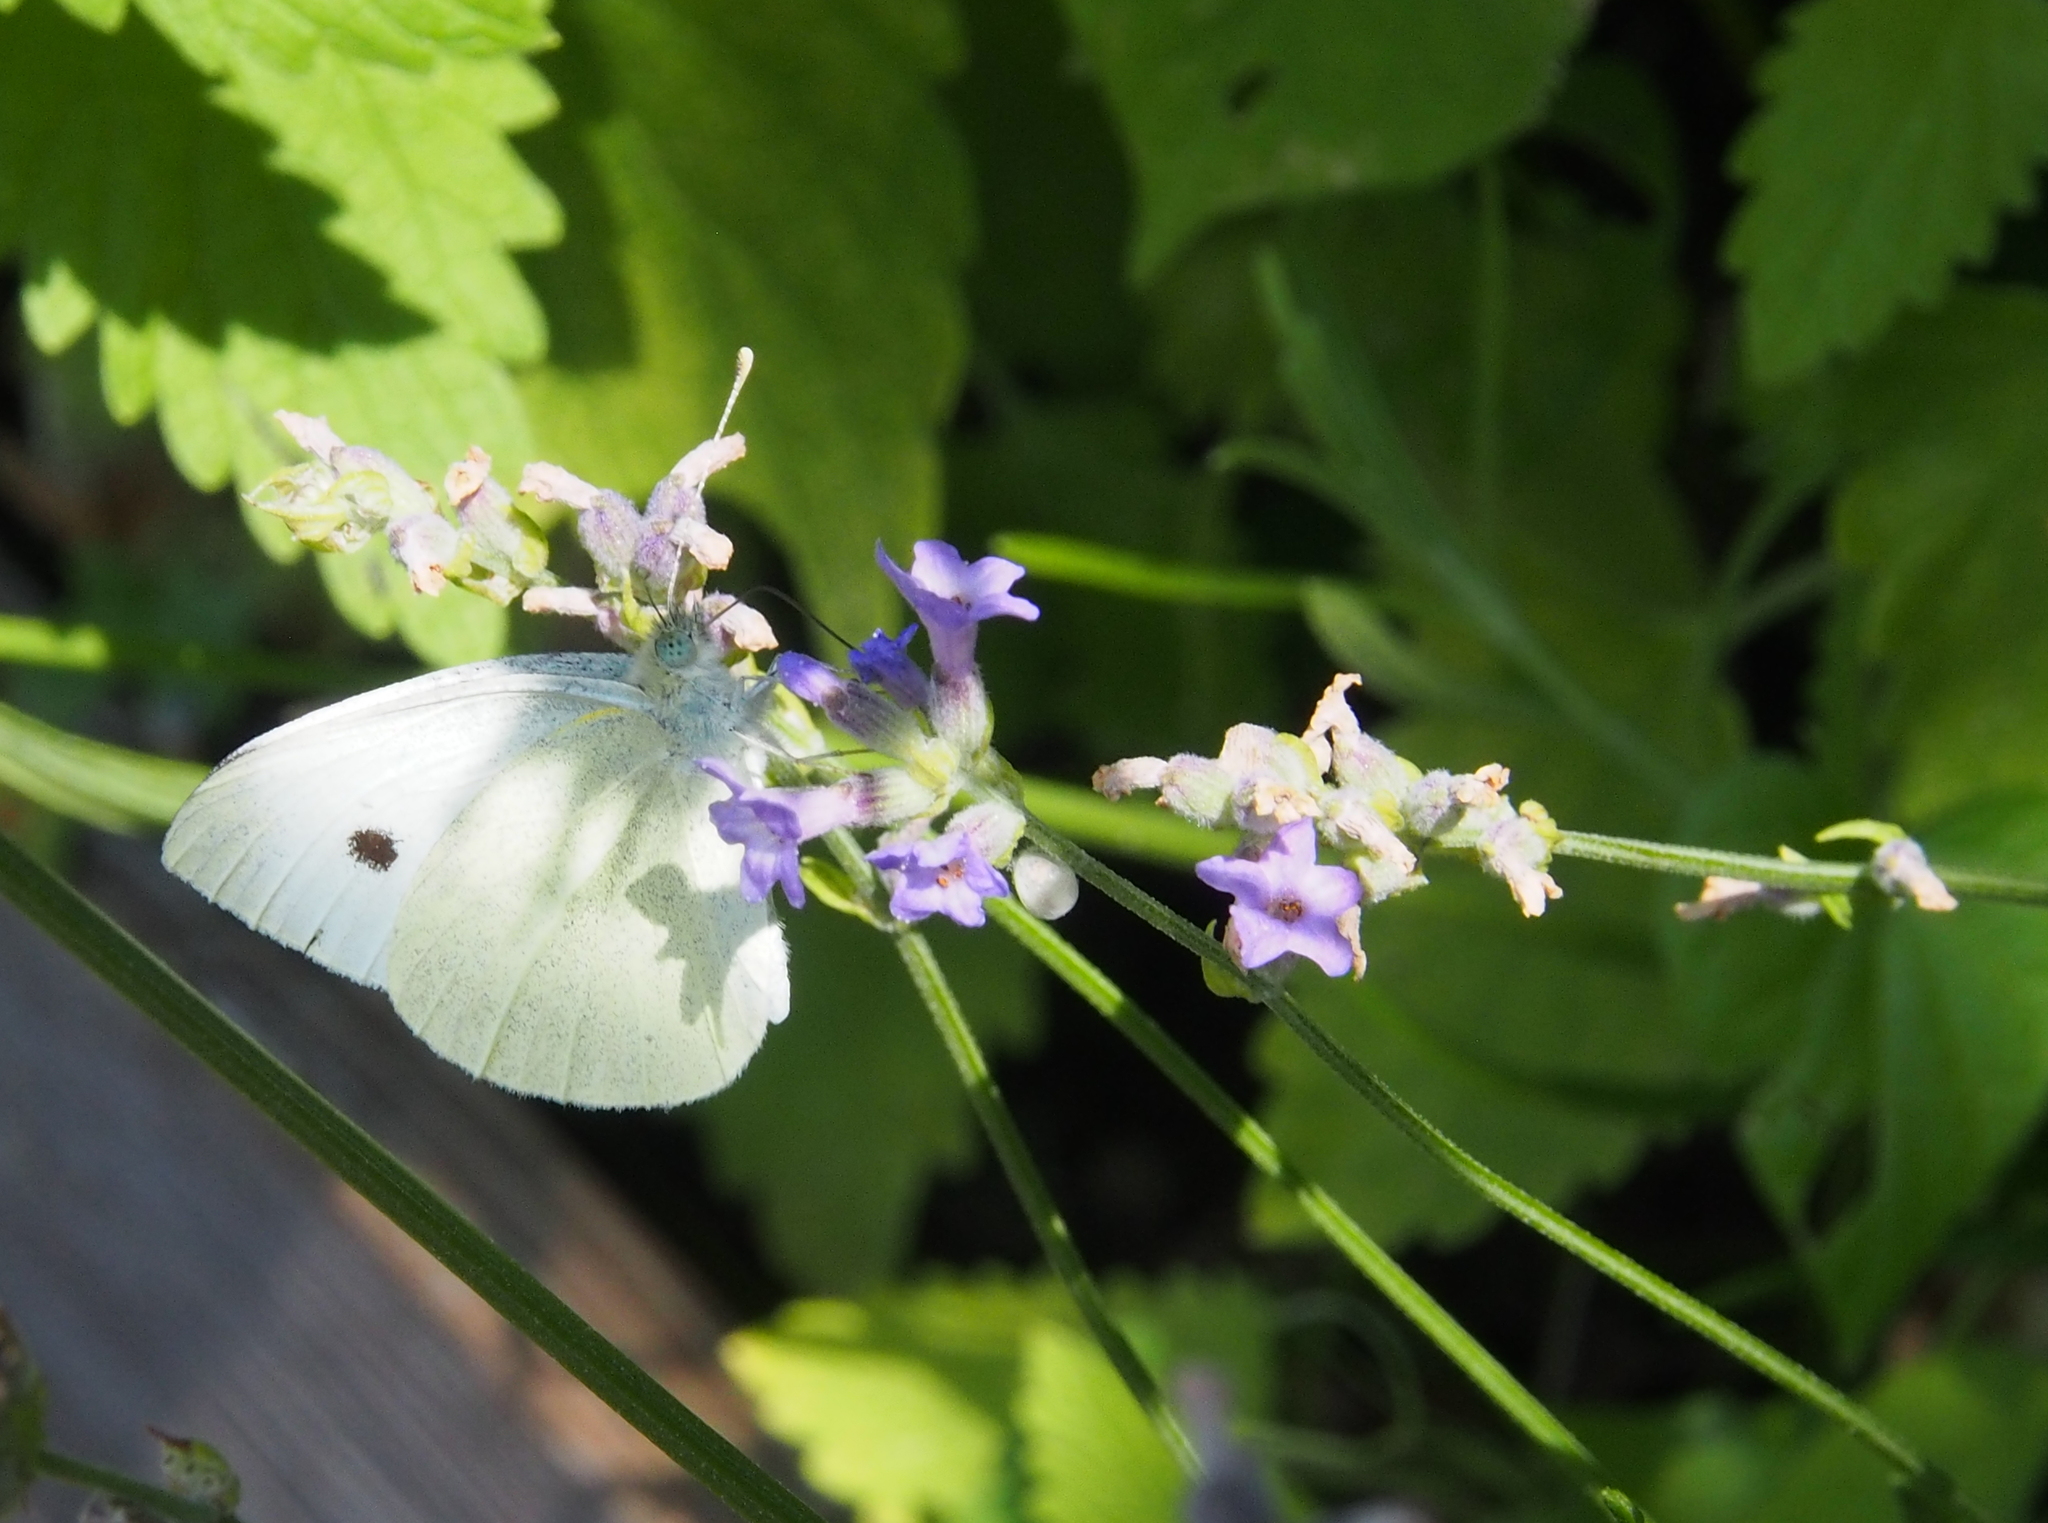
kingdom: Animalia
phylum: Arthropoda
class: Insecta
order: Lepidoptera
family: Pieridae
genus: Pieris
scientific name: Pieris rapae
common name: Small white
